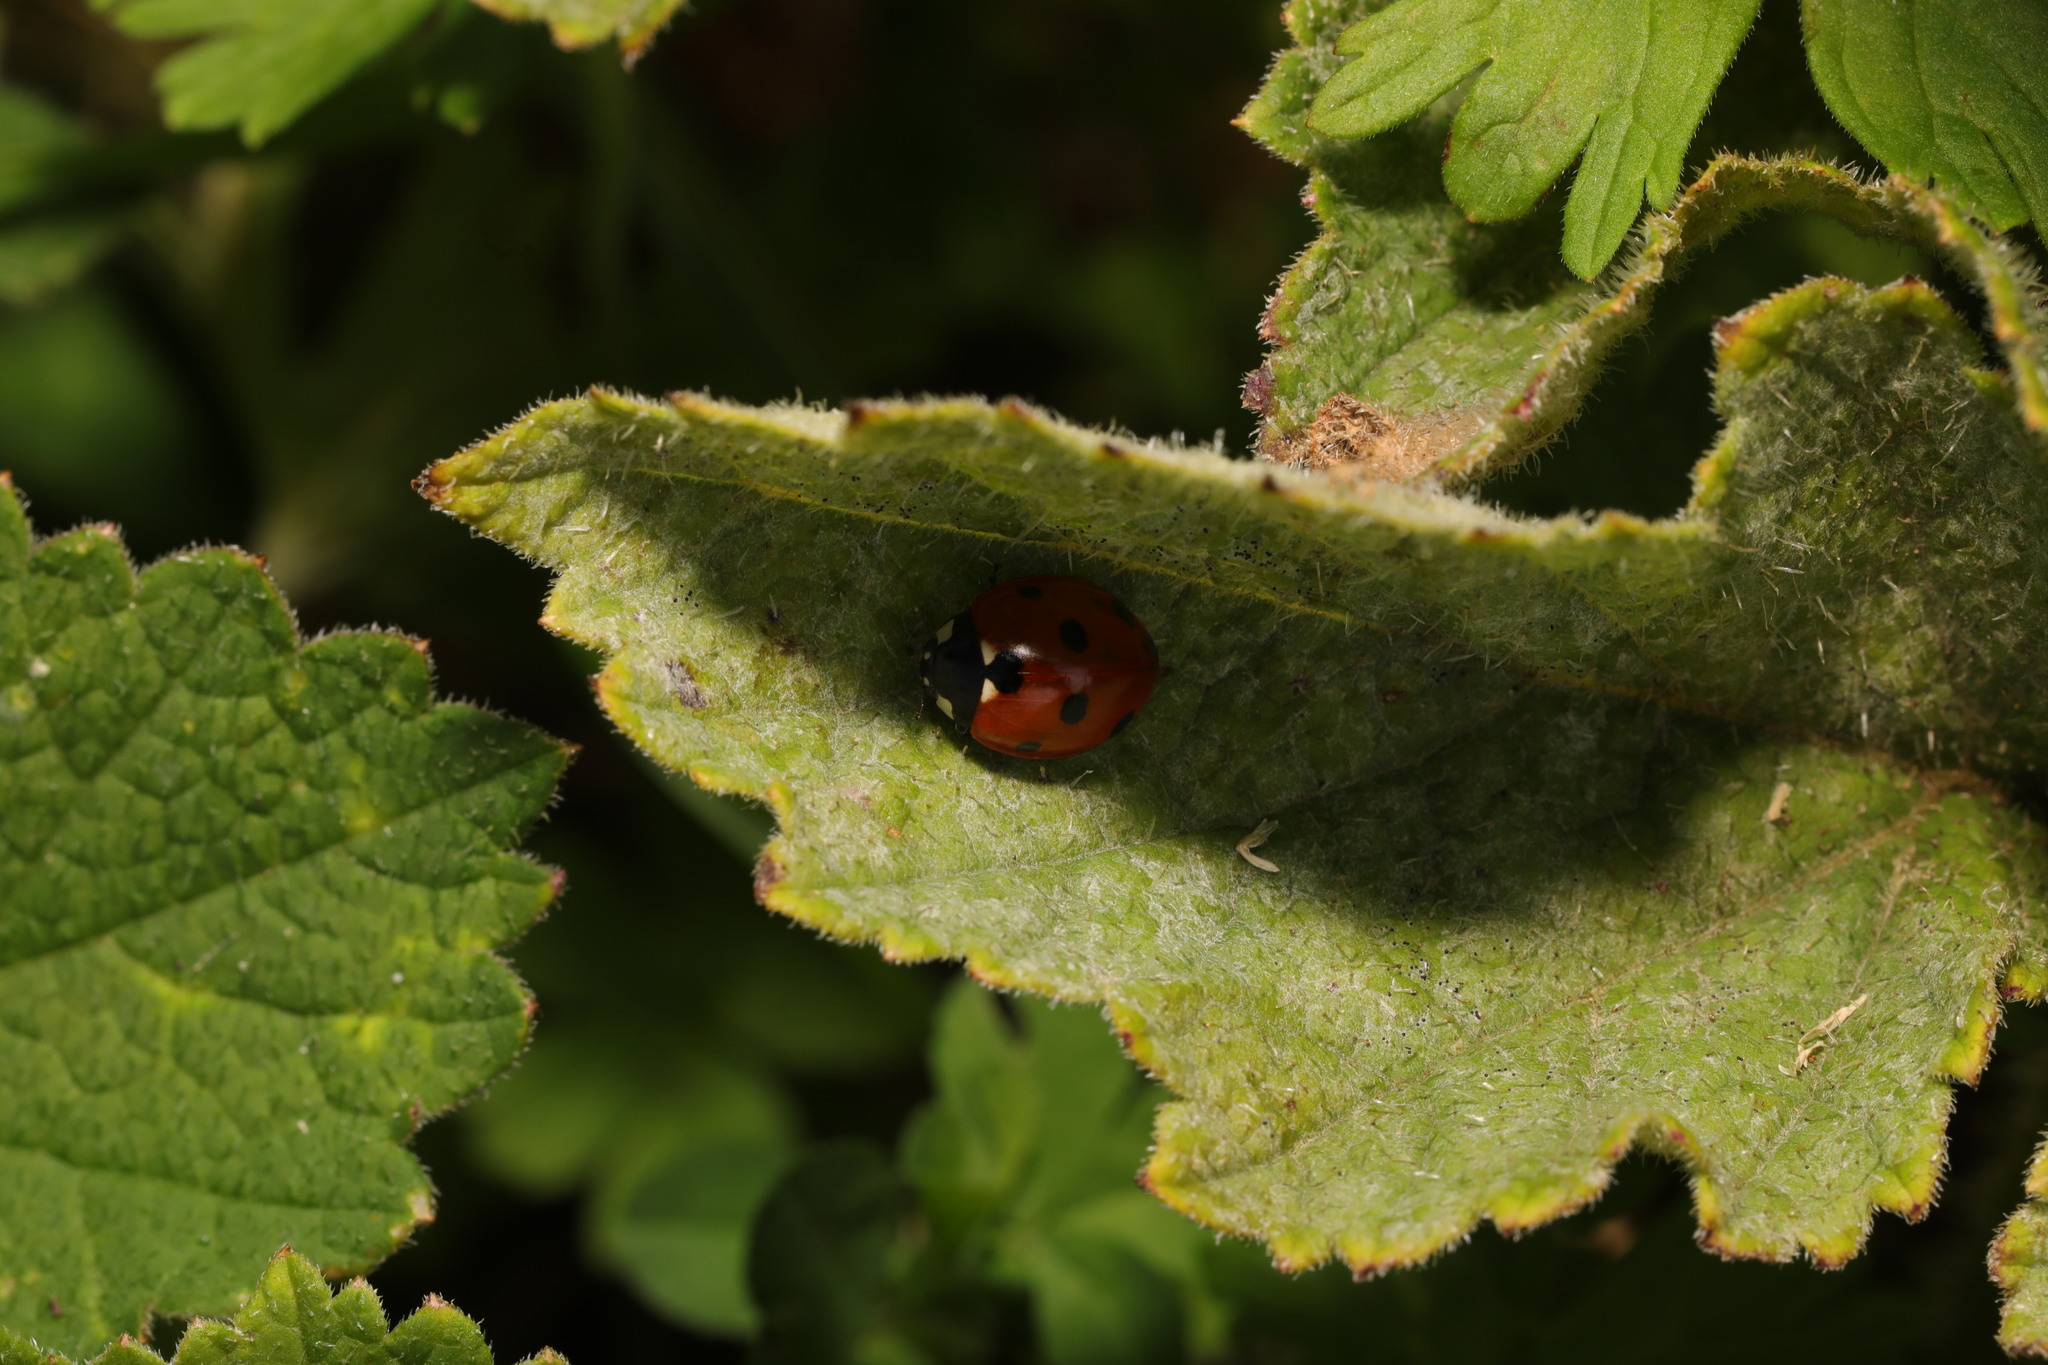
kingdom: Animalia
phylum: Arthropoda
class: Insecta
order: Coleoptera
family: Coccinellidae
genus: Coccinella
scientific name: Coccinella septempunctata
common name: Sevenspotted lady beetle
